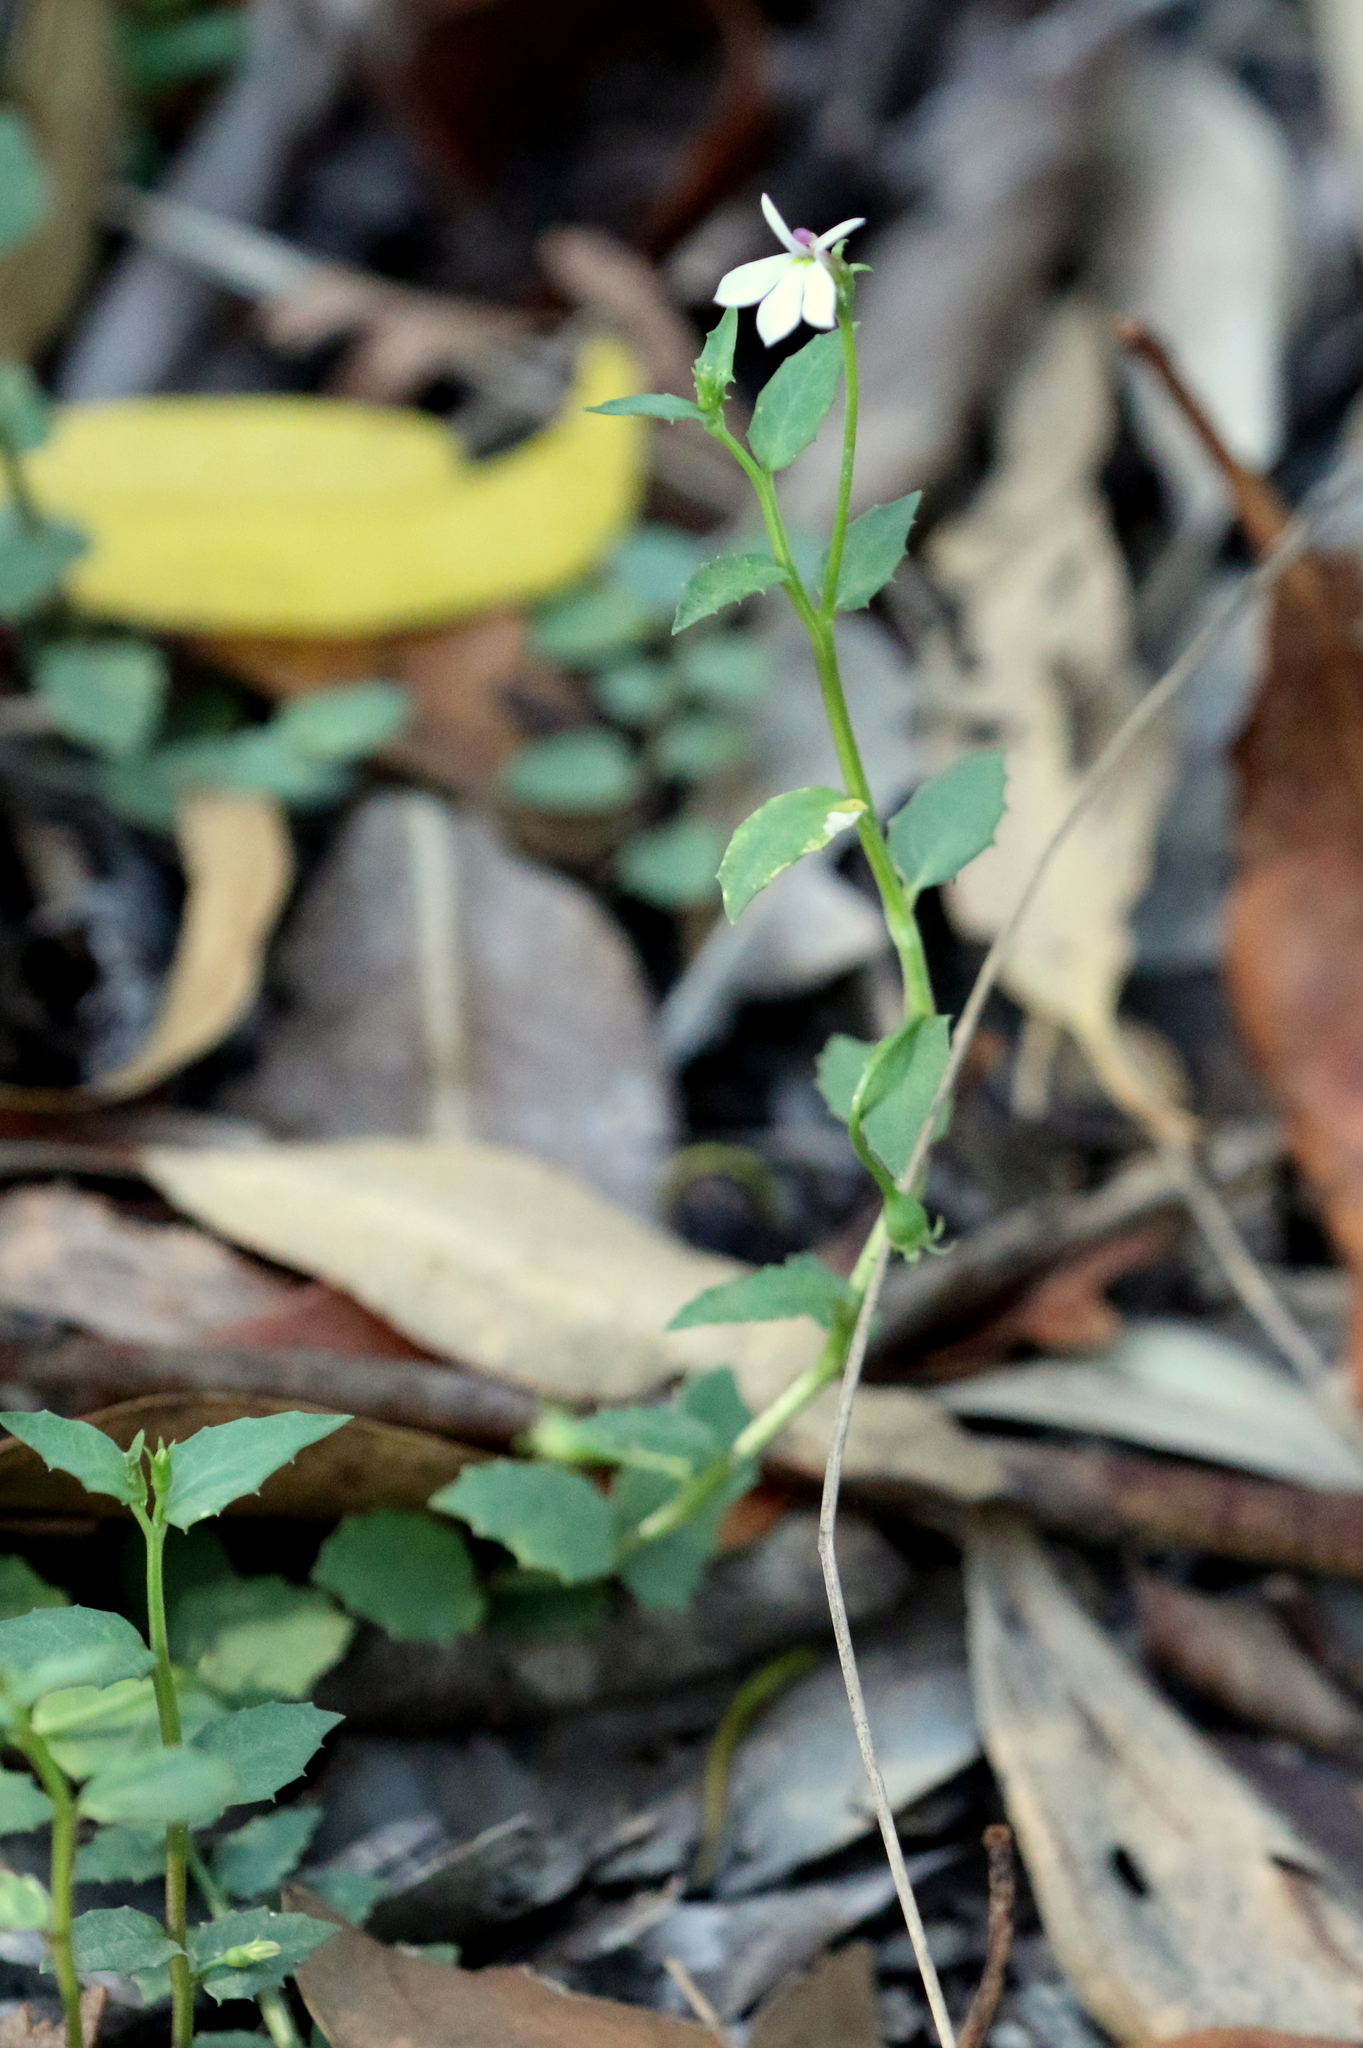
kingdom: Plantae
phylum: Tracheophyta
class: Magnoliopsida
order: Asterales
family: Campanulaceae
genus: Lobelia
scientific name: Lobelia purpurascens
